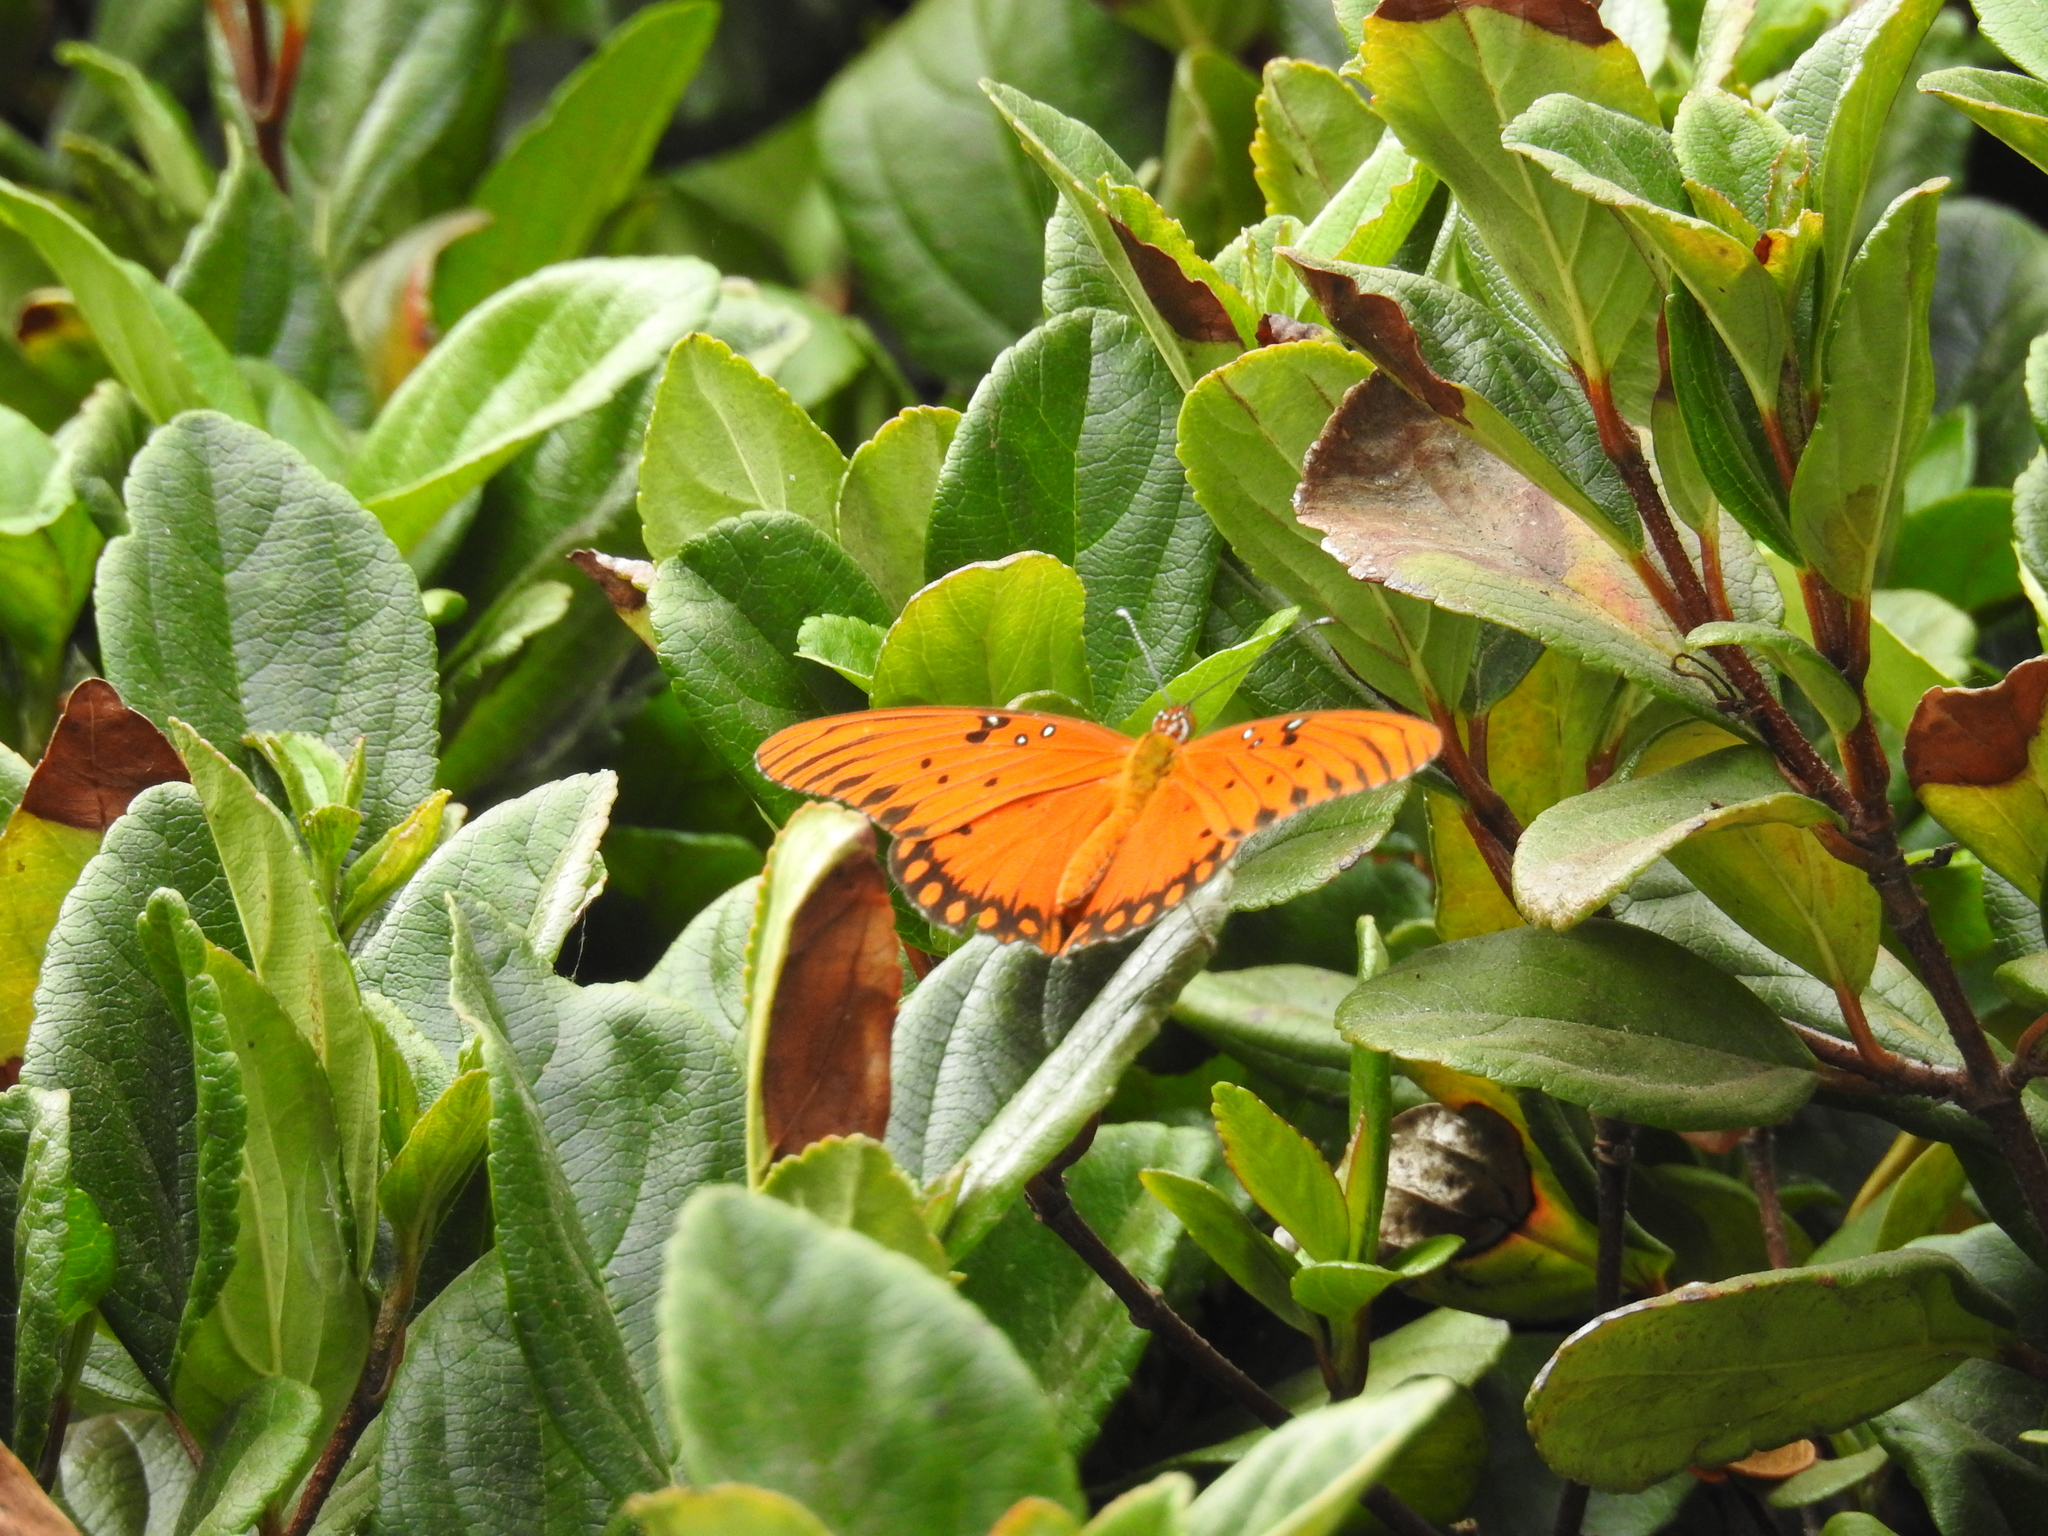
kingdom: Animalia
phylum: Arthropoda
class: Insecta
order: Lepidoptera
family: Nymphalidae
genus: Dione
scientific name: Dione vanillae
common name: Gulf fritillary
